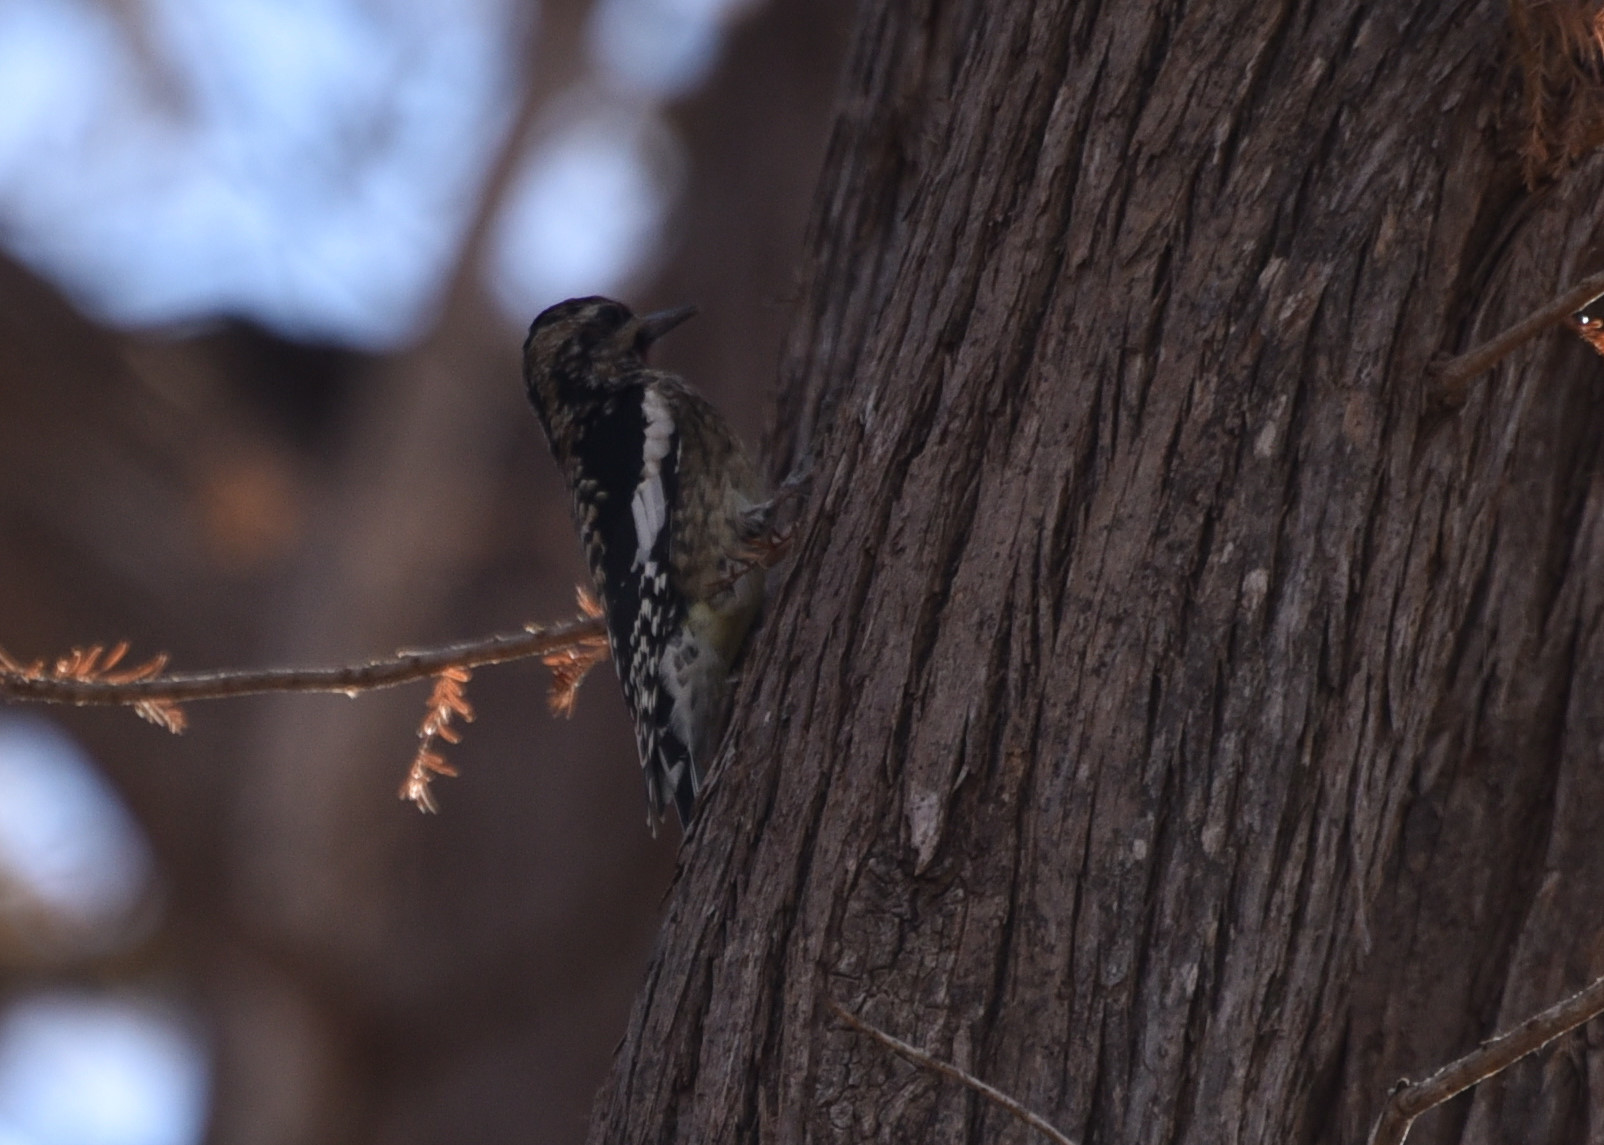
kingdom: Animalia
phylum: Chordata
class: Aves
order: Piciformes
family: Picidae
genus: Sphyrapicus
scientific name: Sphyrapicus varius
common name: Yellow-bellied sapsucker
